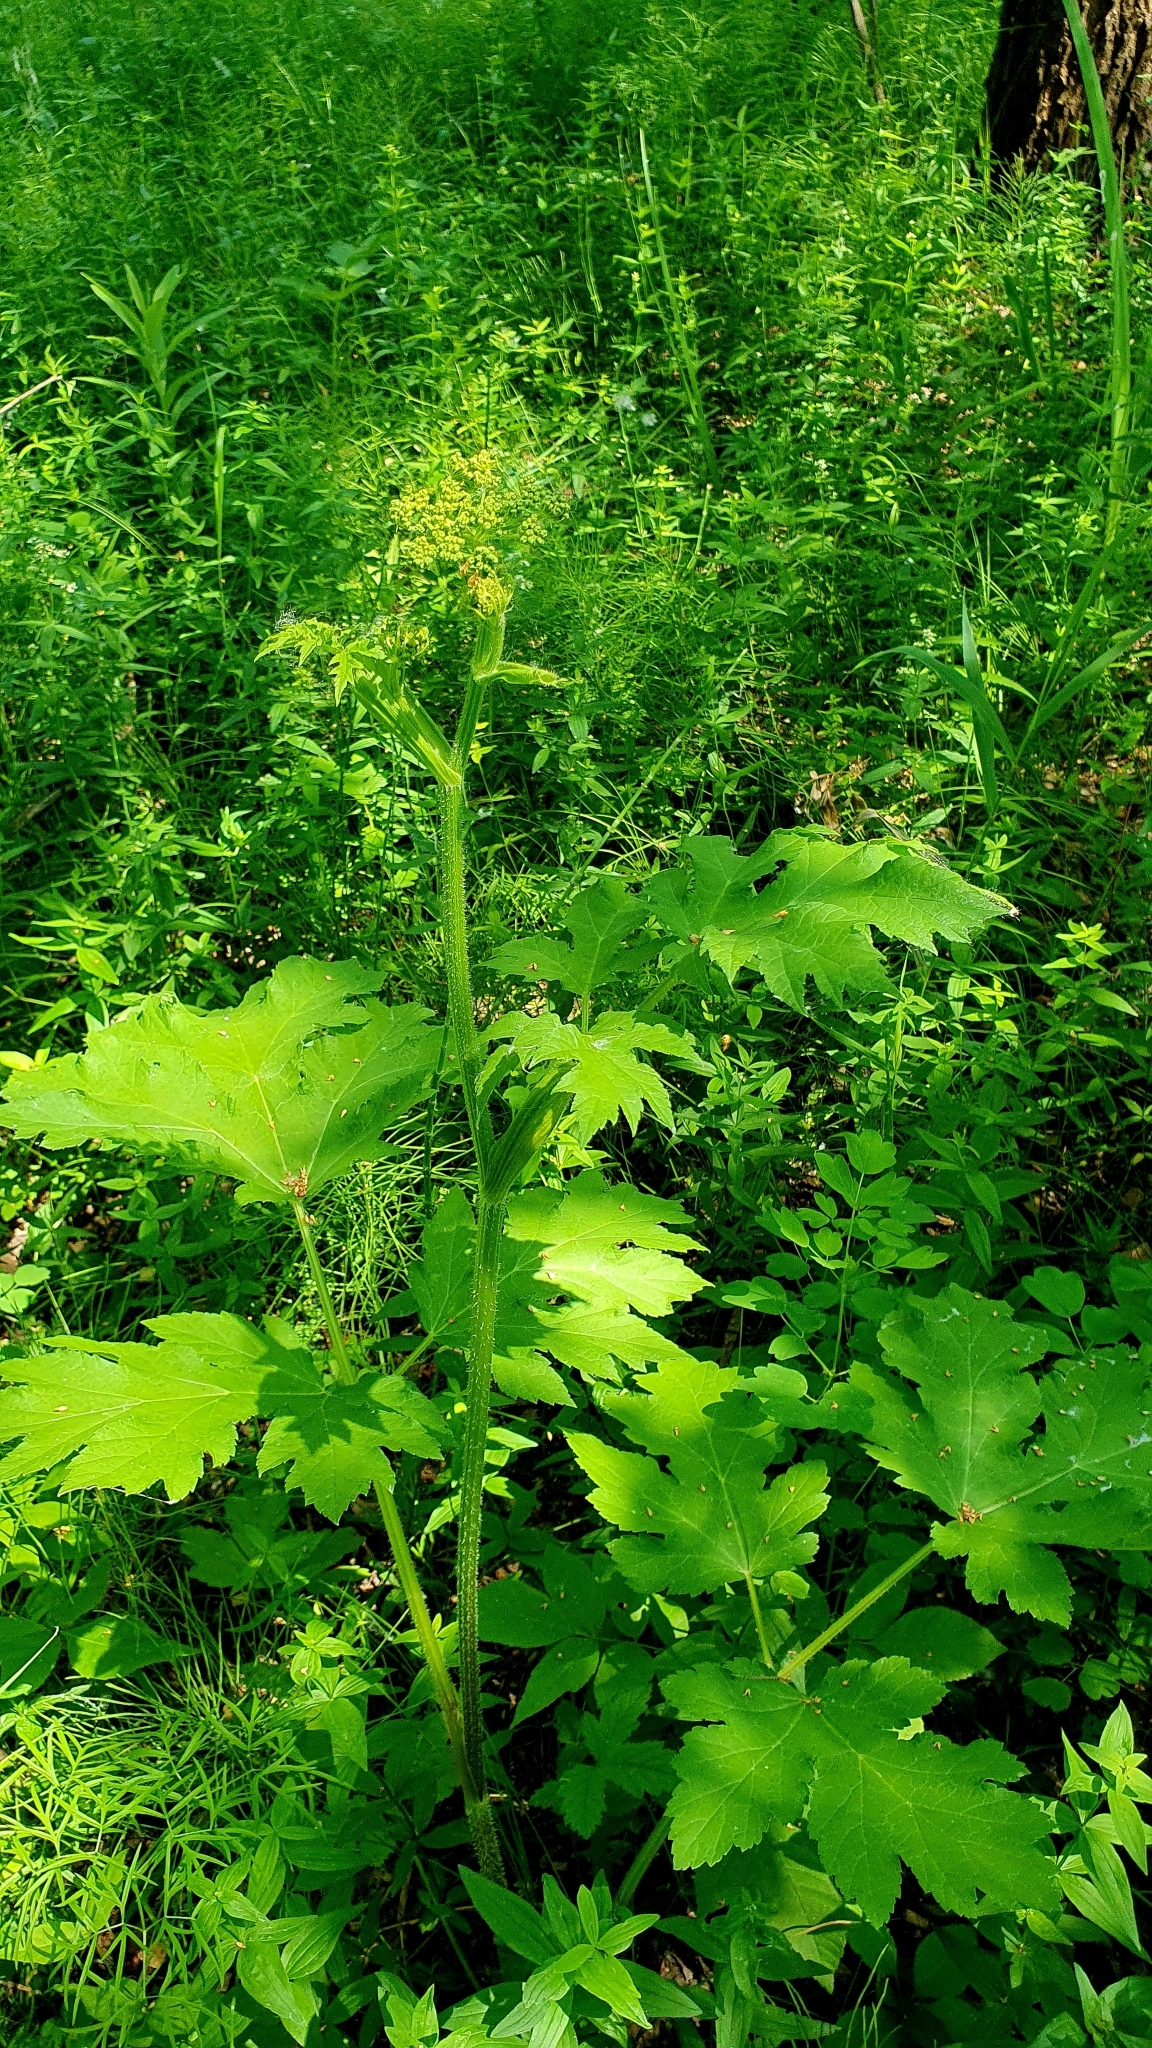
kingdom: Plantae
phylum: Tracheophyta
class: Magnoliopsida
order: Apiales
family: Apiaceae
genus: Heracleum
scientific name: Heracleum sphondylium
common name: Hogweed
